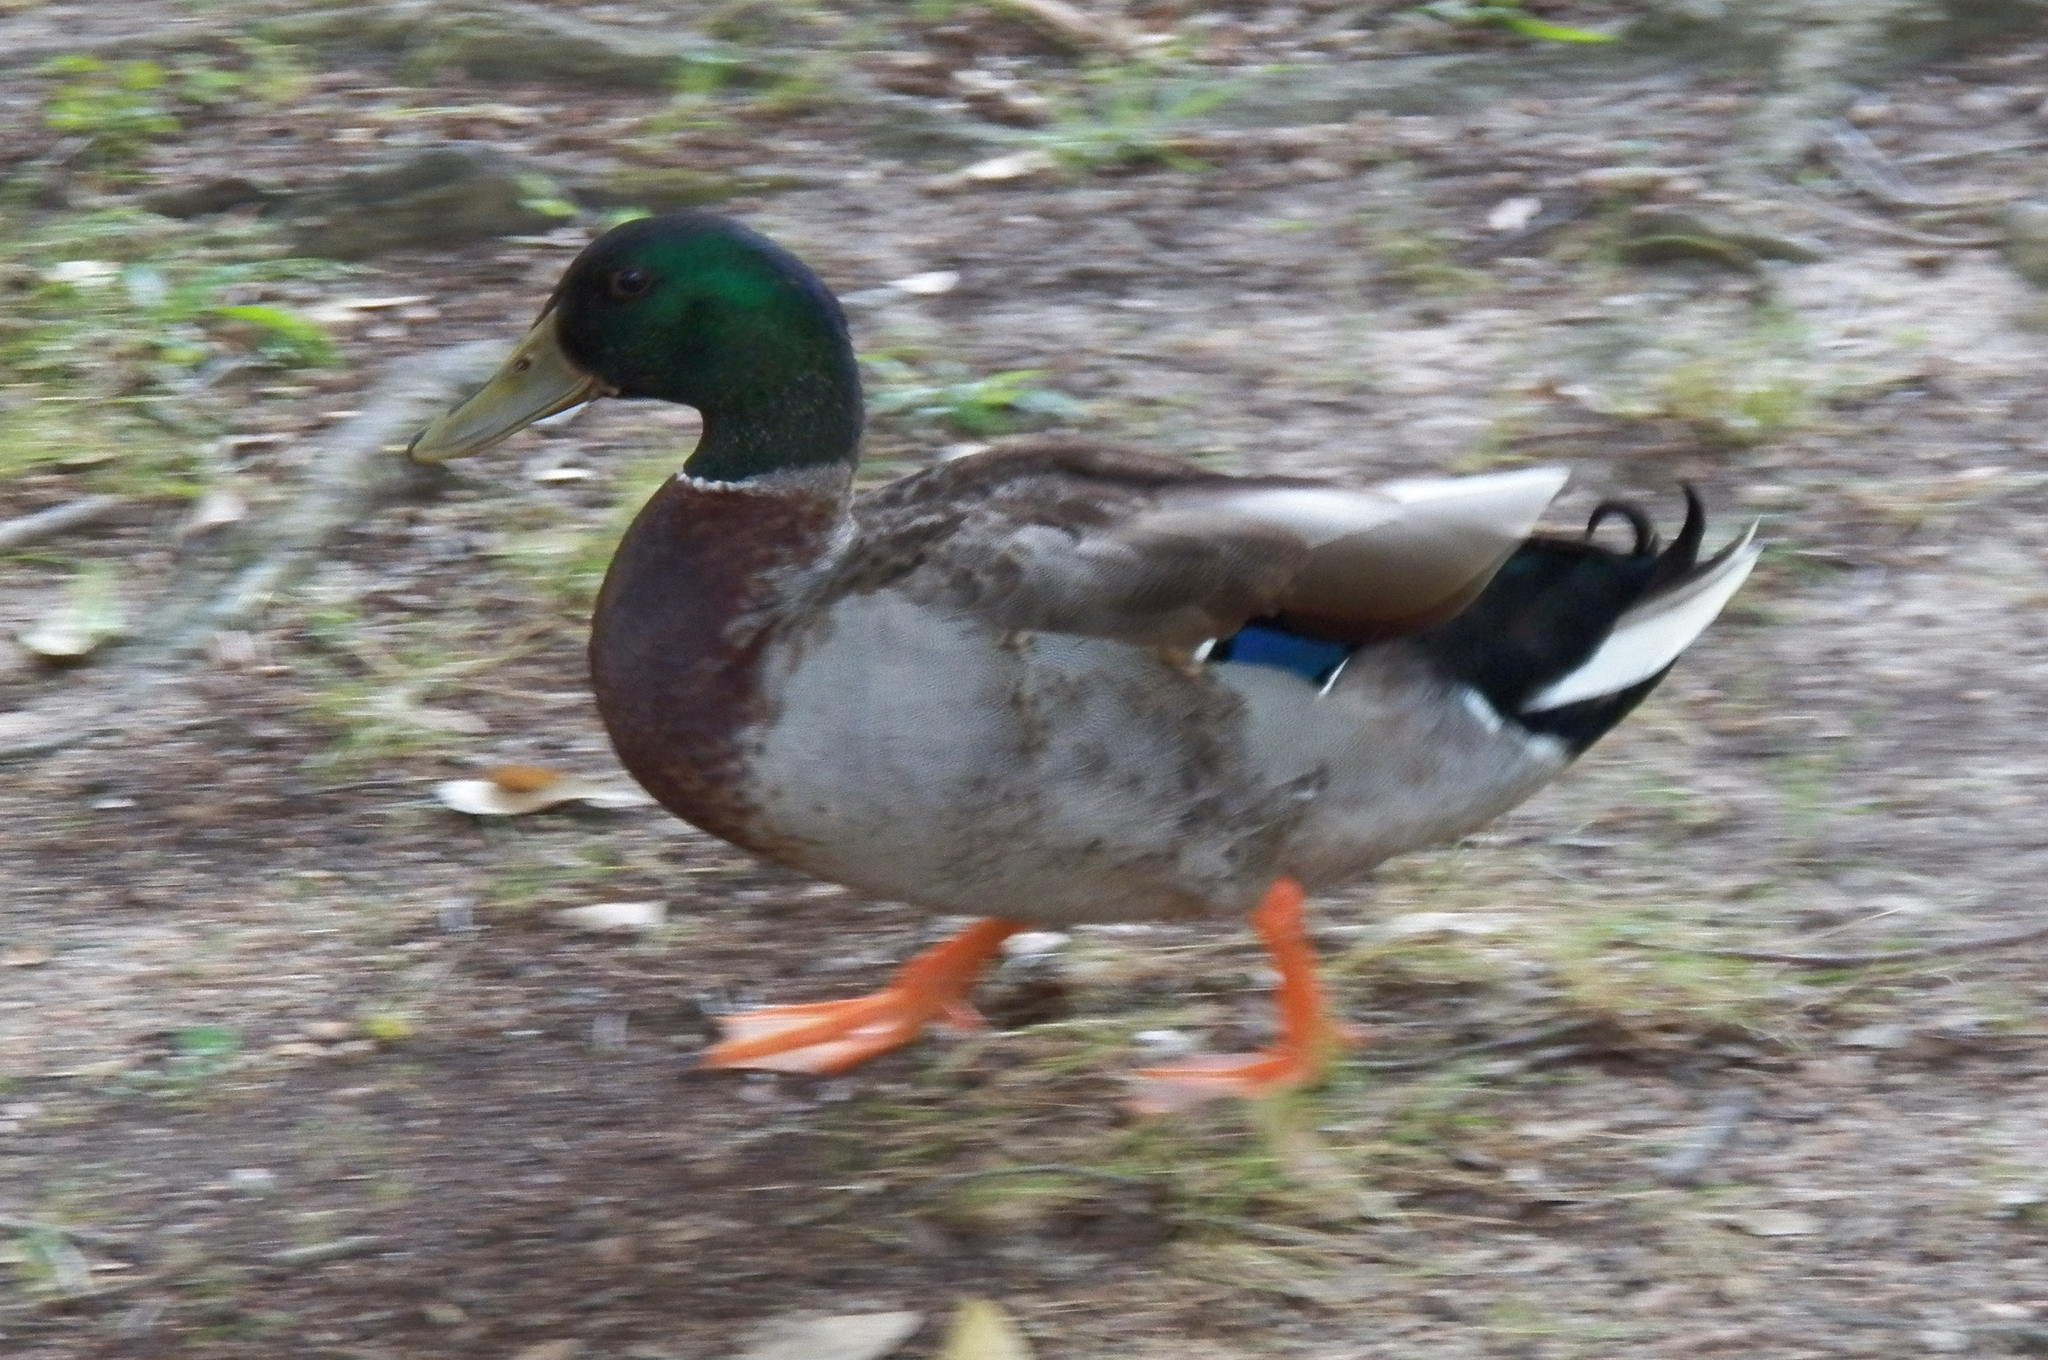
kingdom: Animalia
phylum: Chordata
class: Aves
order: Anseriformes
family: Anatidae
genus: Anas
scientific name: Anas platyrhynchos
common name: Mallard
